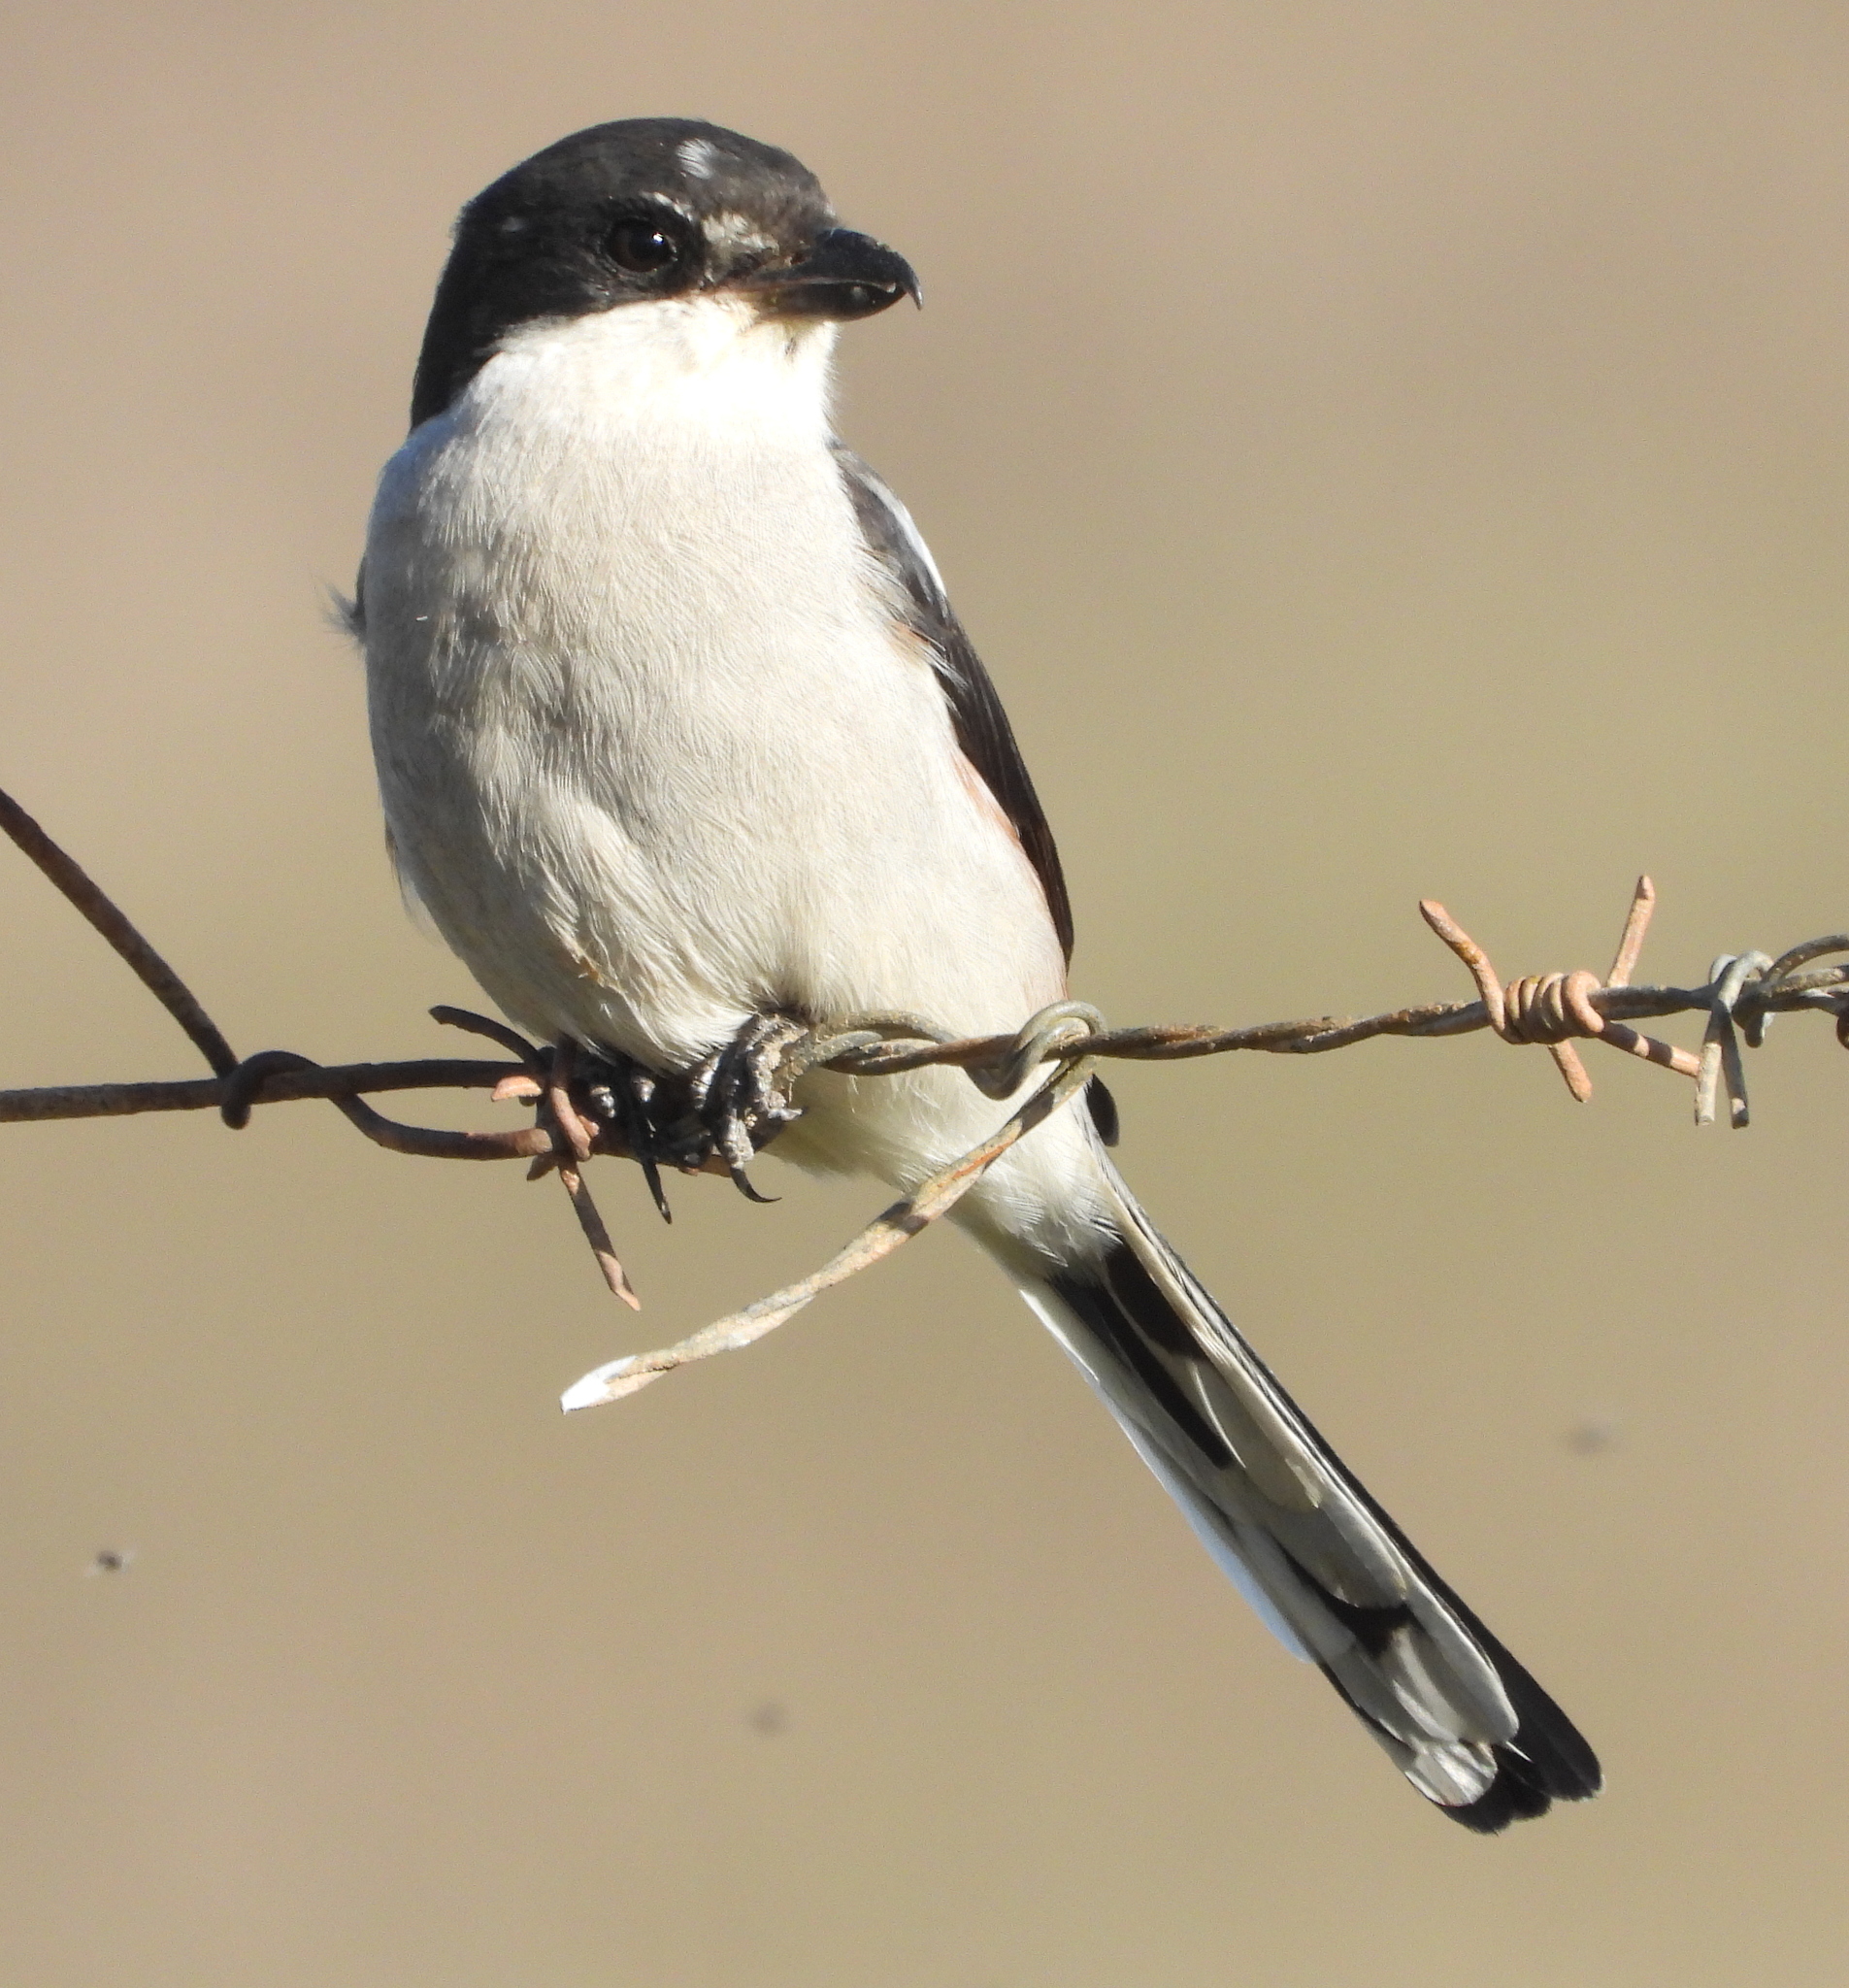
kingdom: Animalia
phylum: Chordata
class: Aves
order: Passeriformes
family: Laniidae
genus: Lanius
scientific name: Lanius collaris
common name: Southern fiscal
